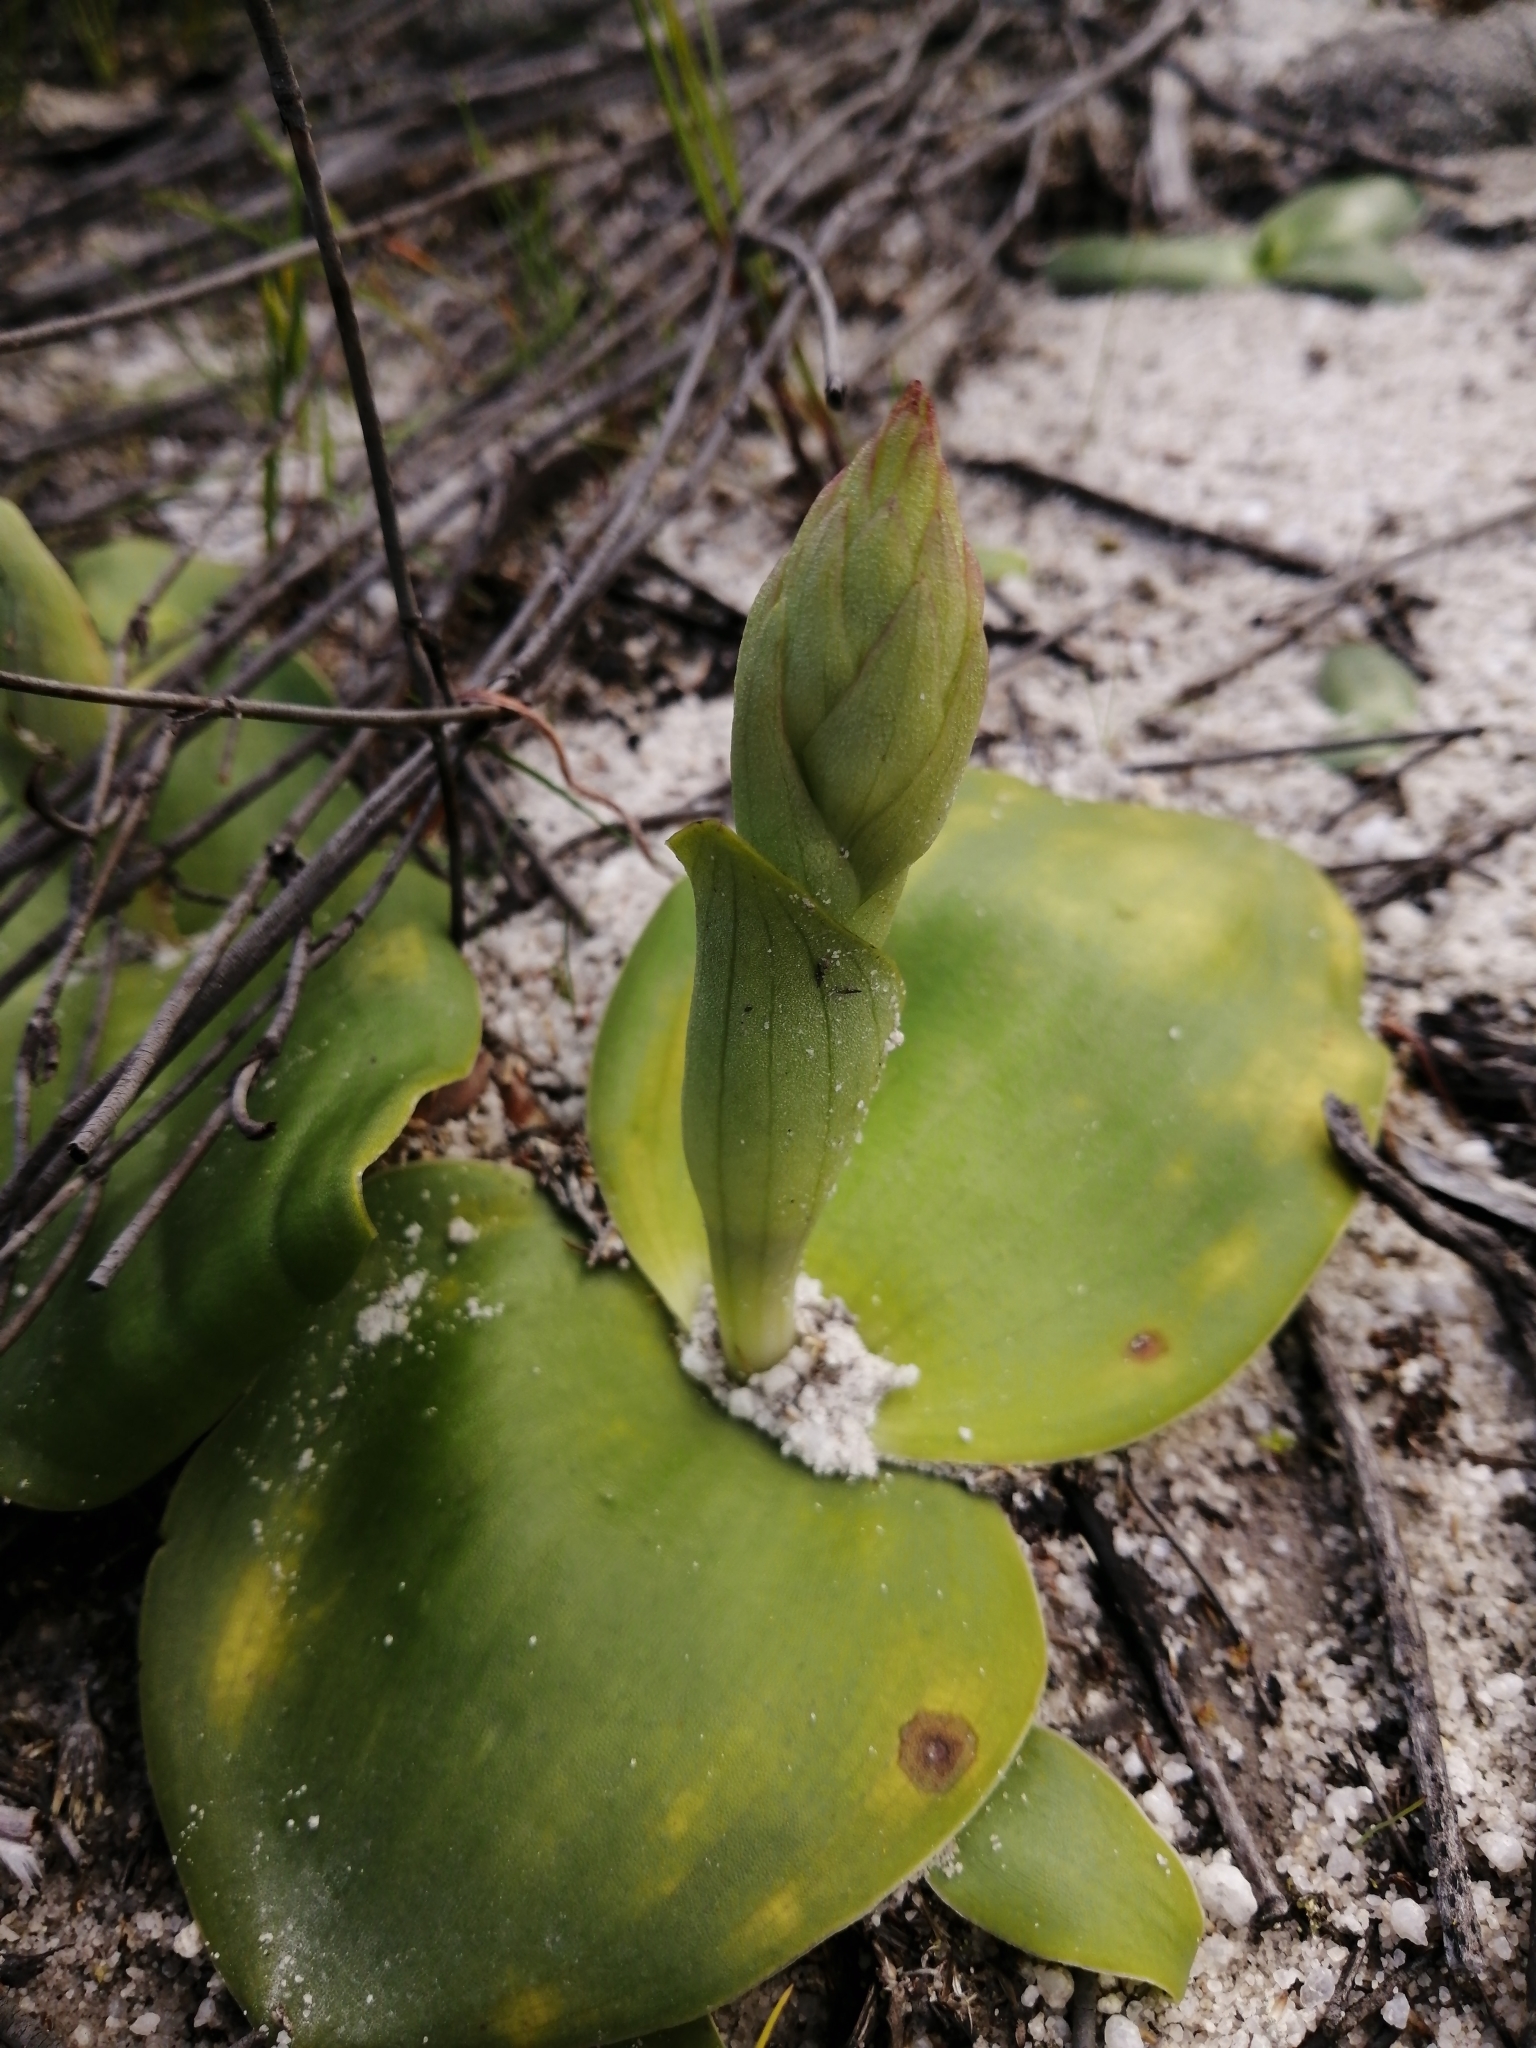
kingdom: Plantae
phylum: Tracheophyta
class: Liliopsida
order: Asparagales
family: Orchidaceae
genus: Satyrium
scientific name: Satyrium erectum
